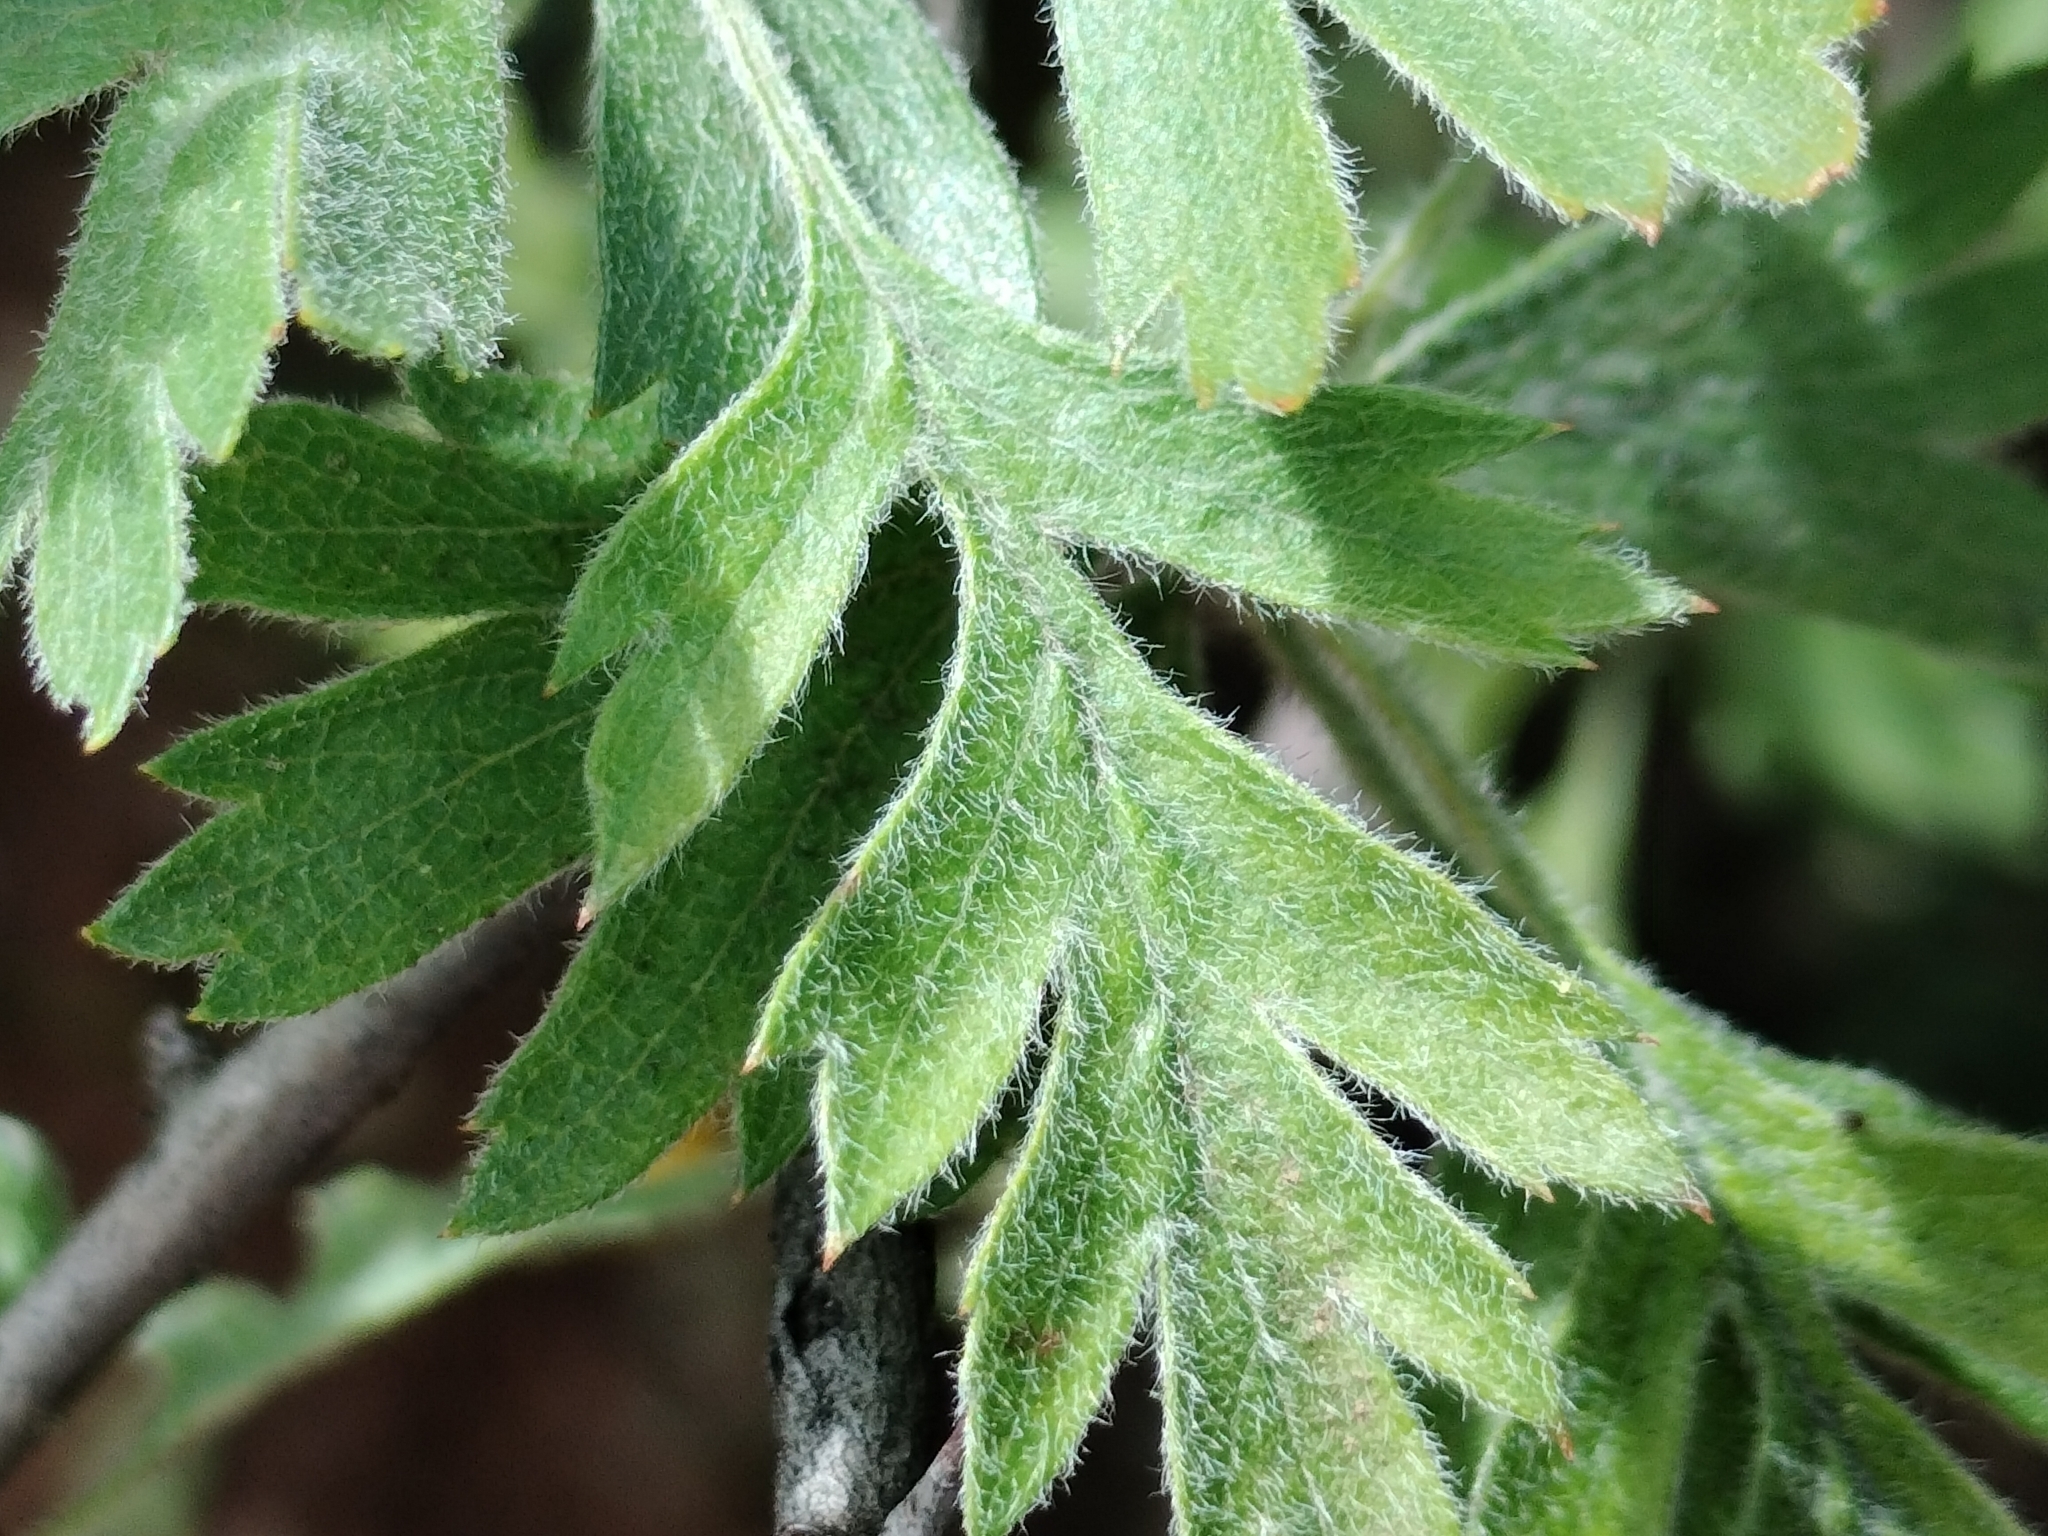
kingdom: Plantae
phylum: Tracheophyta
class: Magnoliopsida
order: Rosales
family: Rosaceae
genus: Crataegus
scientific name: Crataegus laciniata
